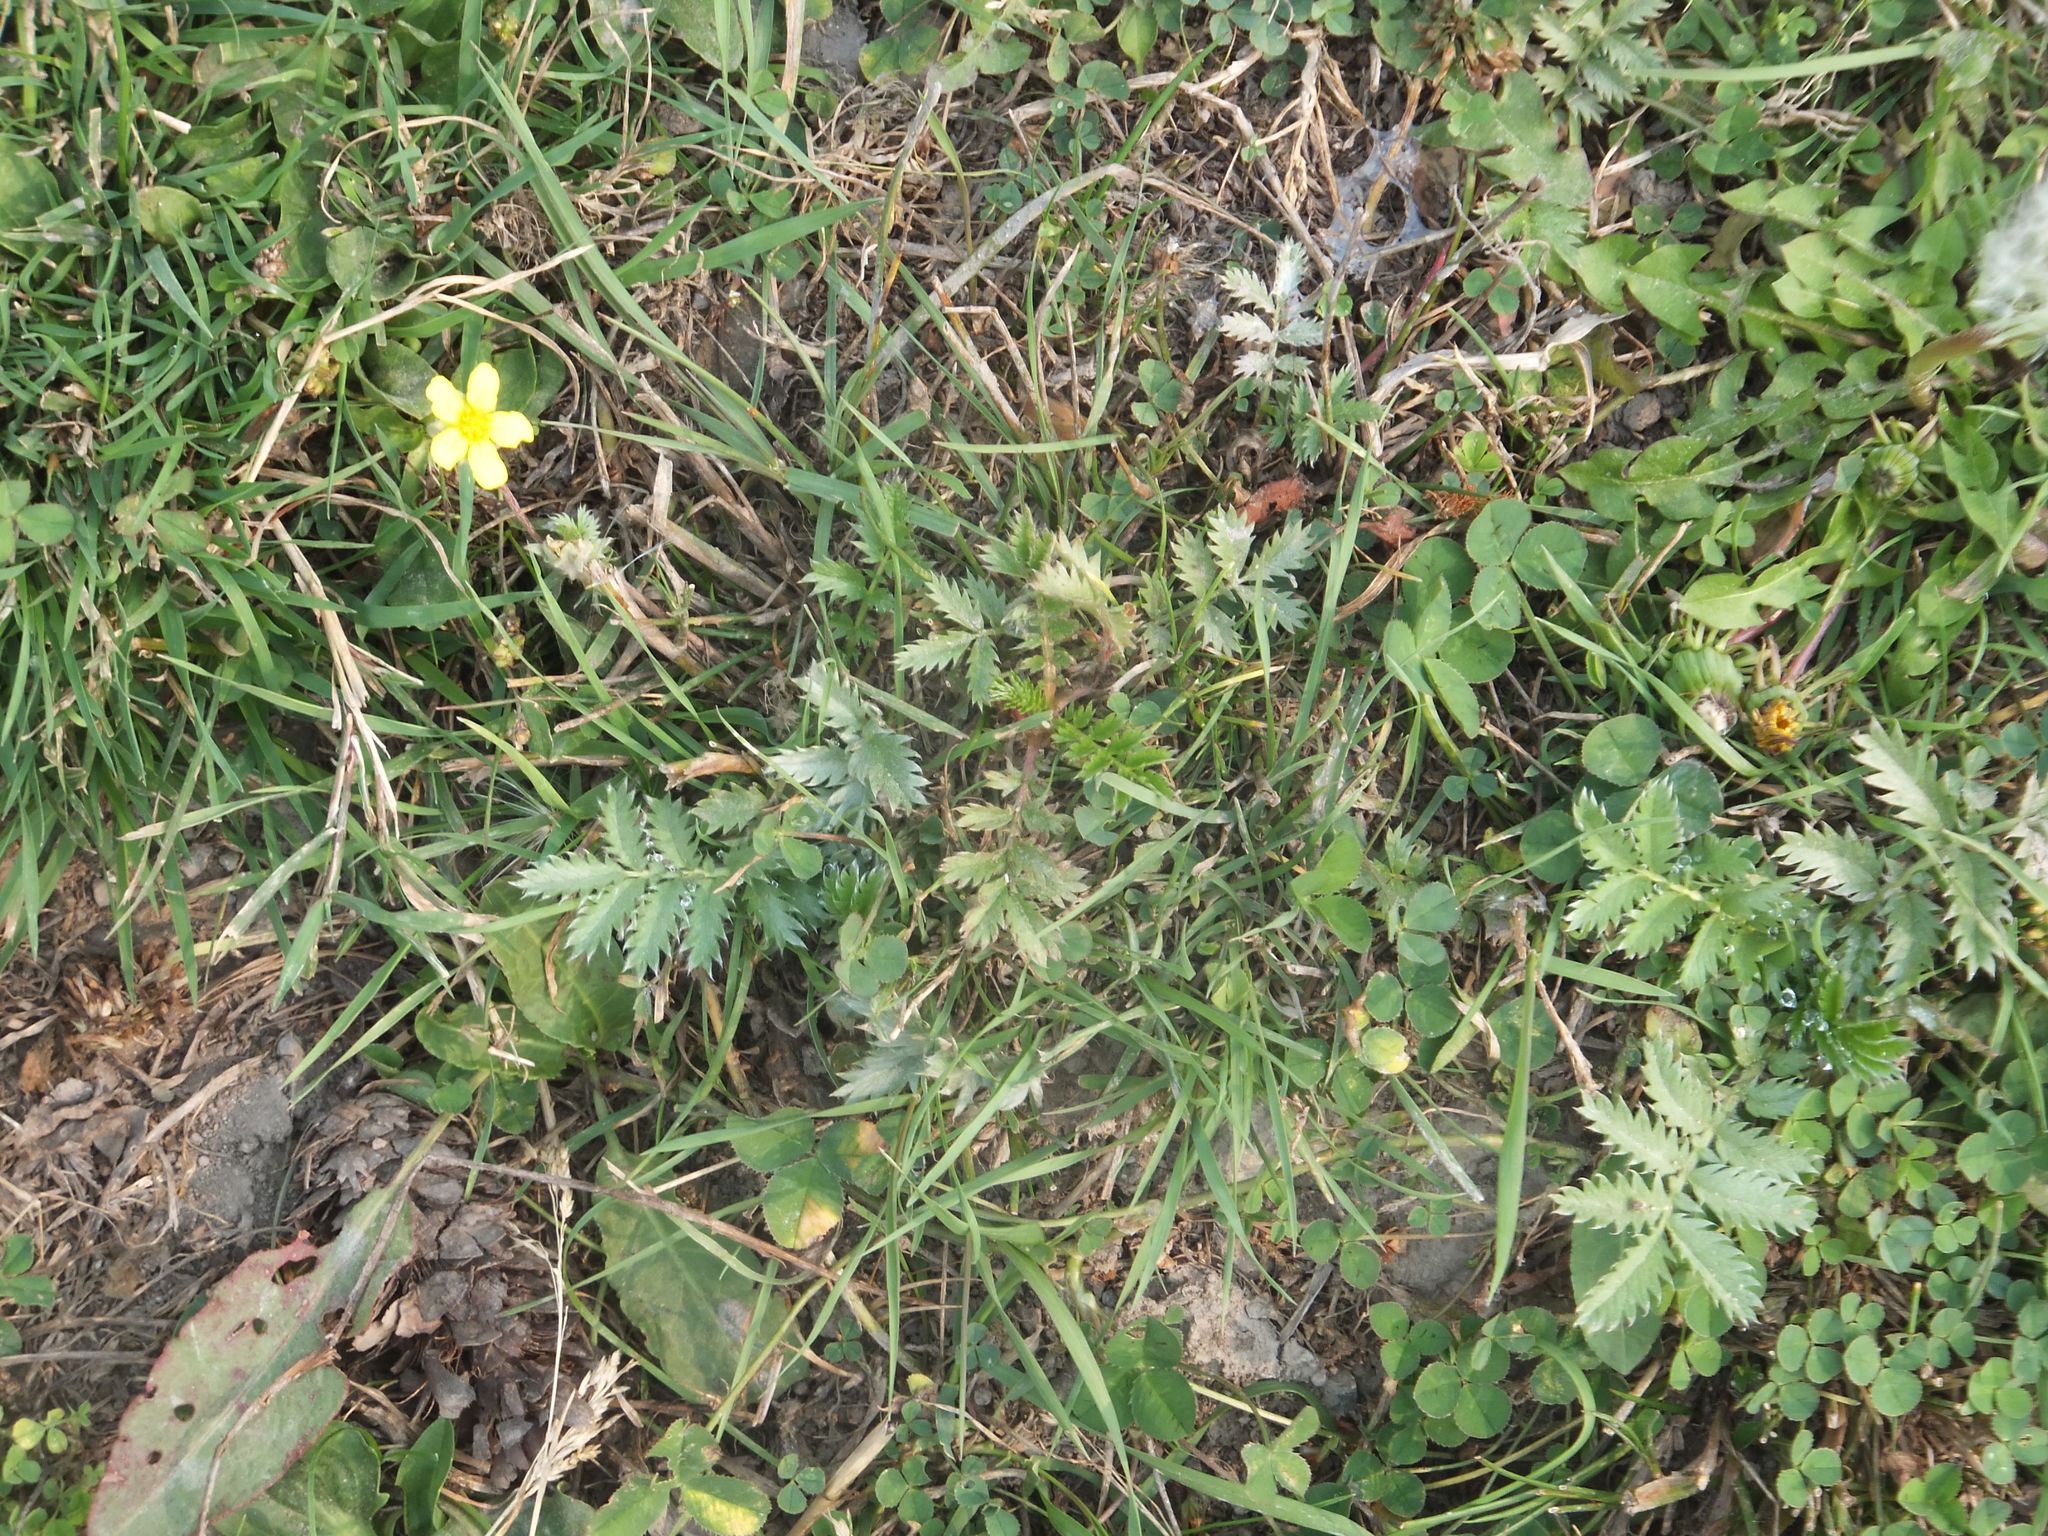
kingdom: Plantae
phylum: Tracheophyta
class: Magnoliopsida
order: Rosales
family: Rosaceae
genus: Argentina
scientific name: Argentina anserina
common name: Common silverweed
